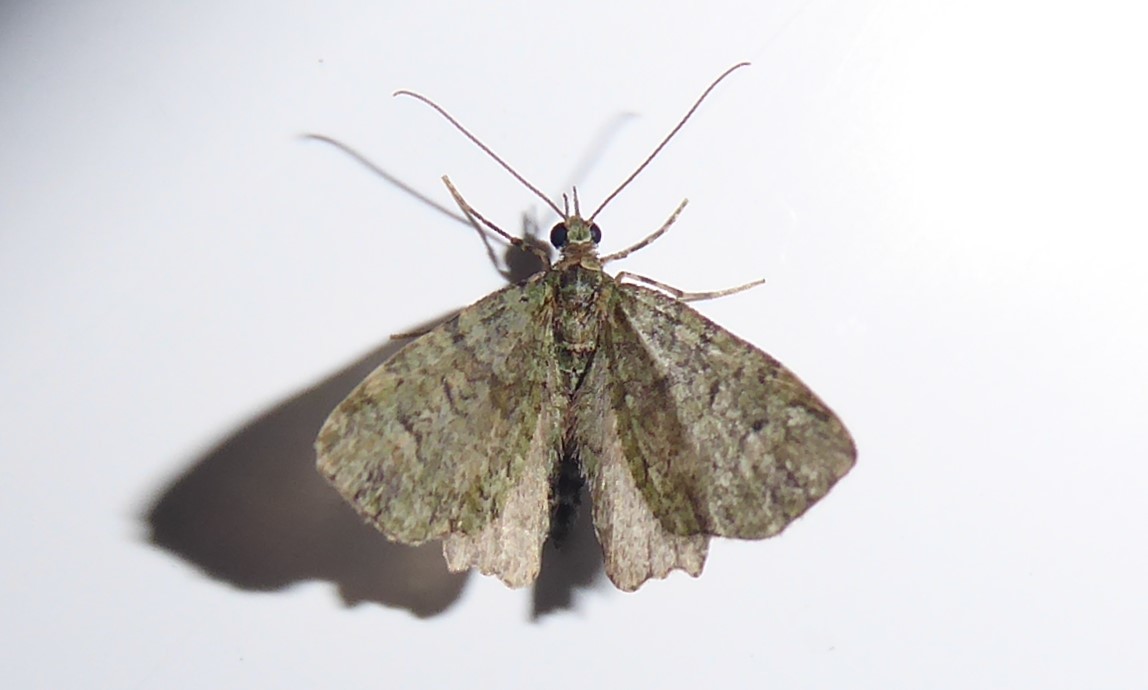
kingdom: Animalia
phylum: Arthropoda
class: Insecta
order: Lepidoptera
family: Geometridae
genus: Idaea
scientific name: Idaea mutanda
